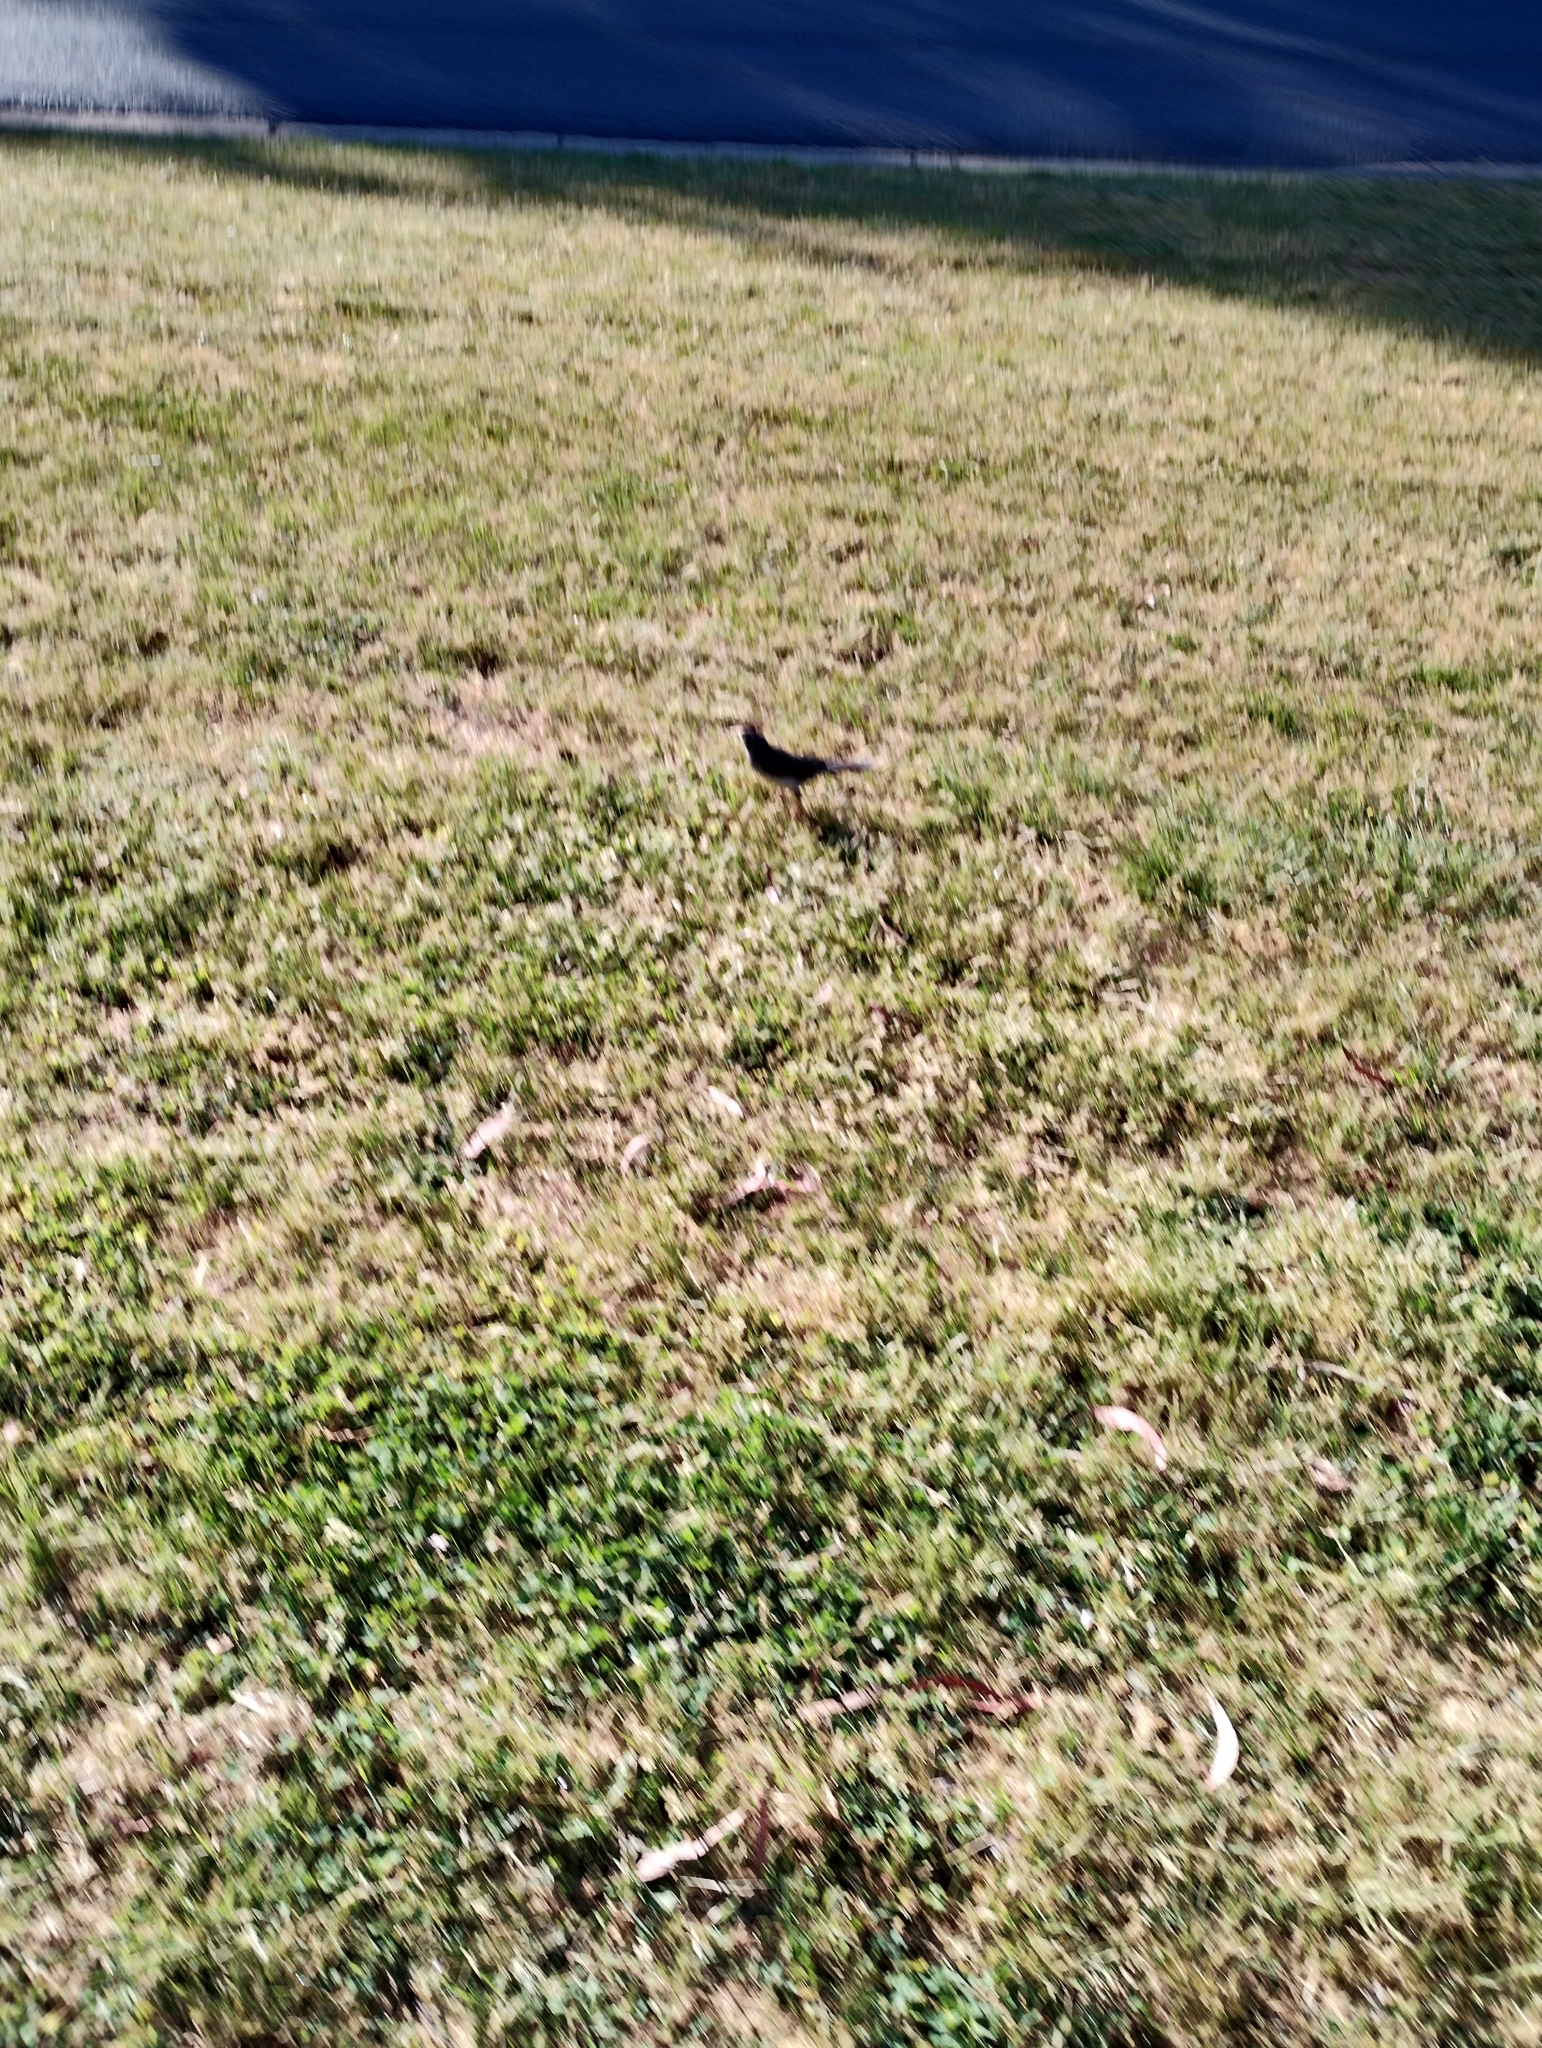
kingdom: Animalia
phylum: Chordata
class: Aves
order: Passeriformes
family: Meliphagidae
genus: Manorina
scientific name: Manorina melanocephala
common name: Noisy miner
